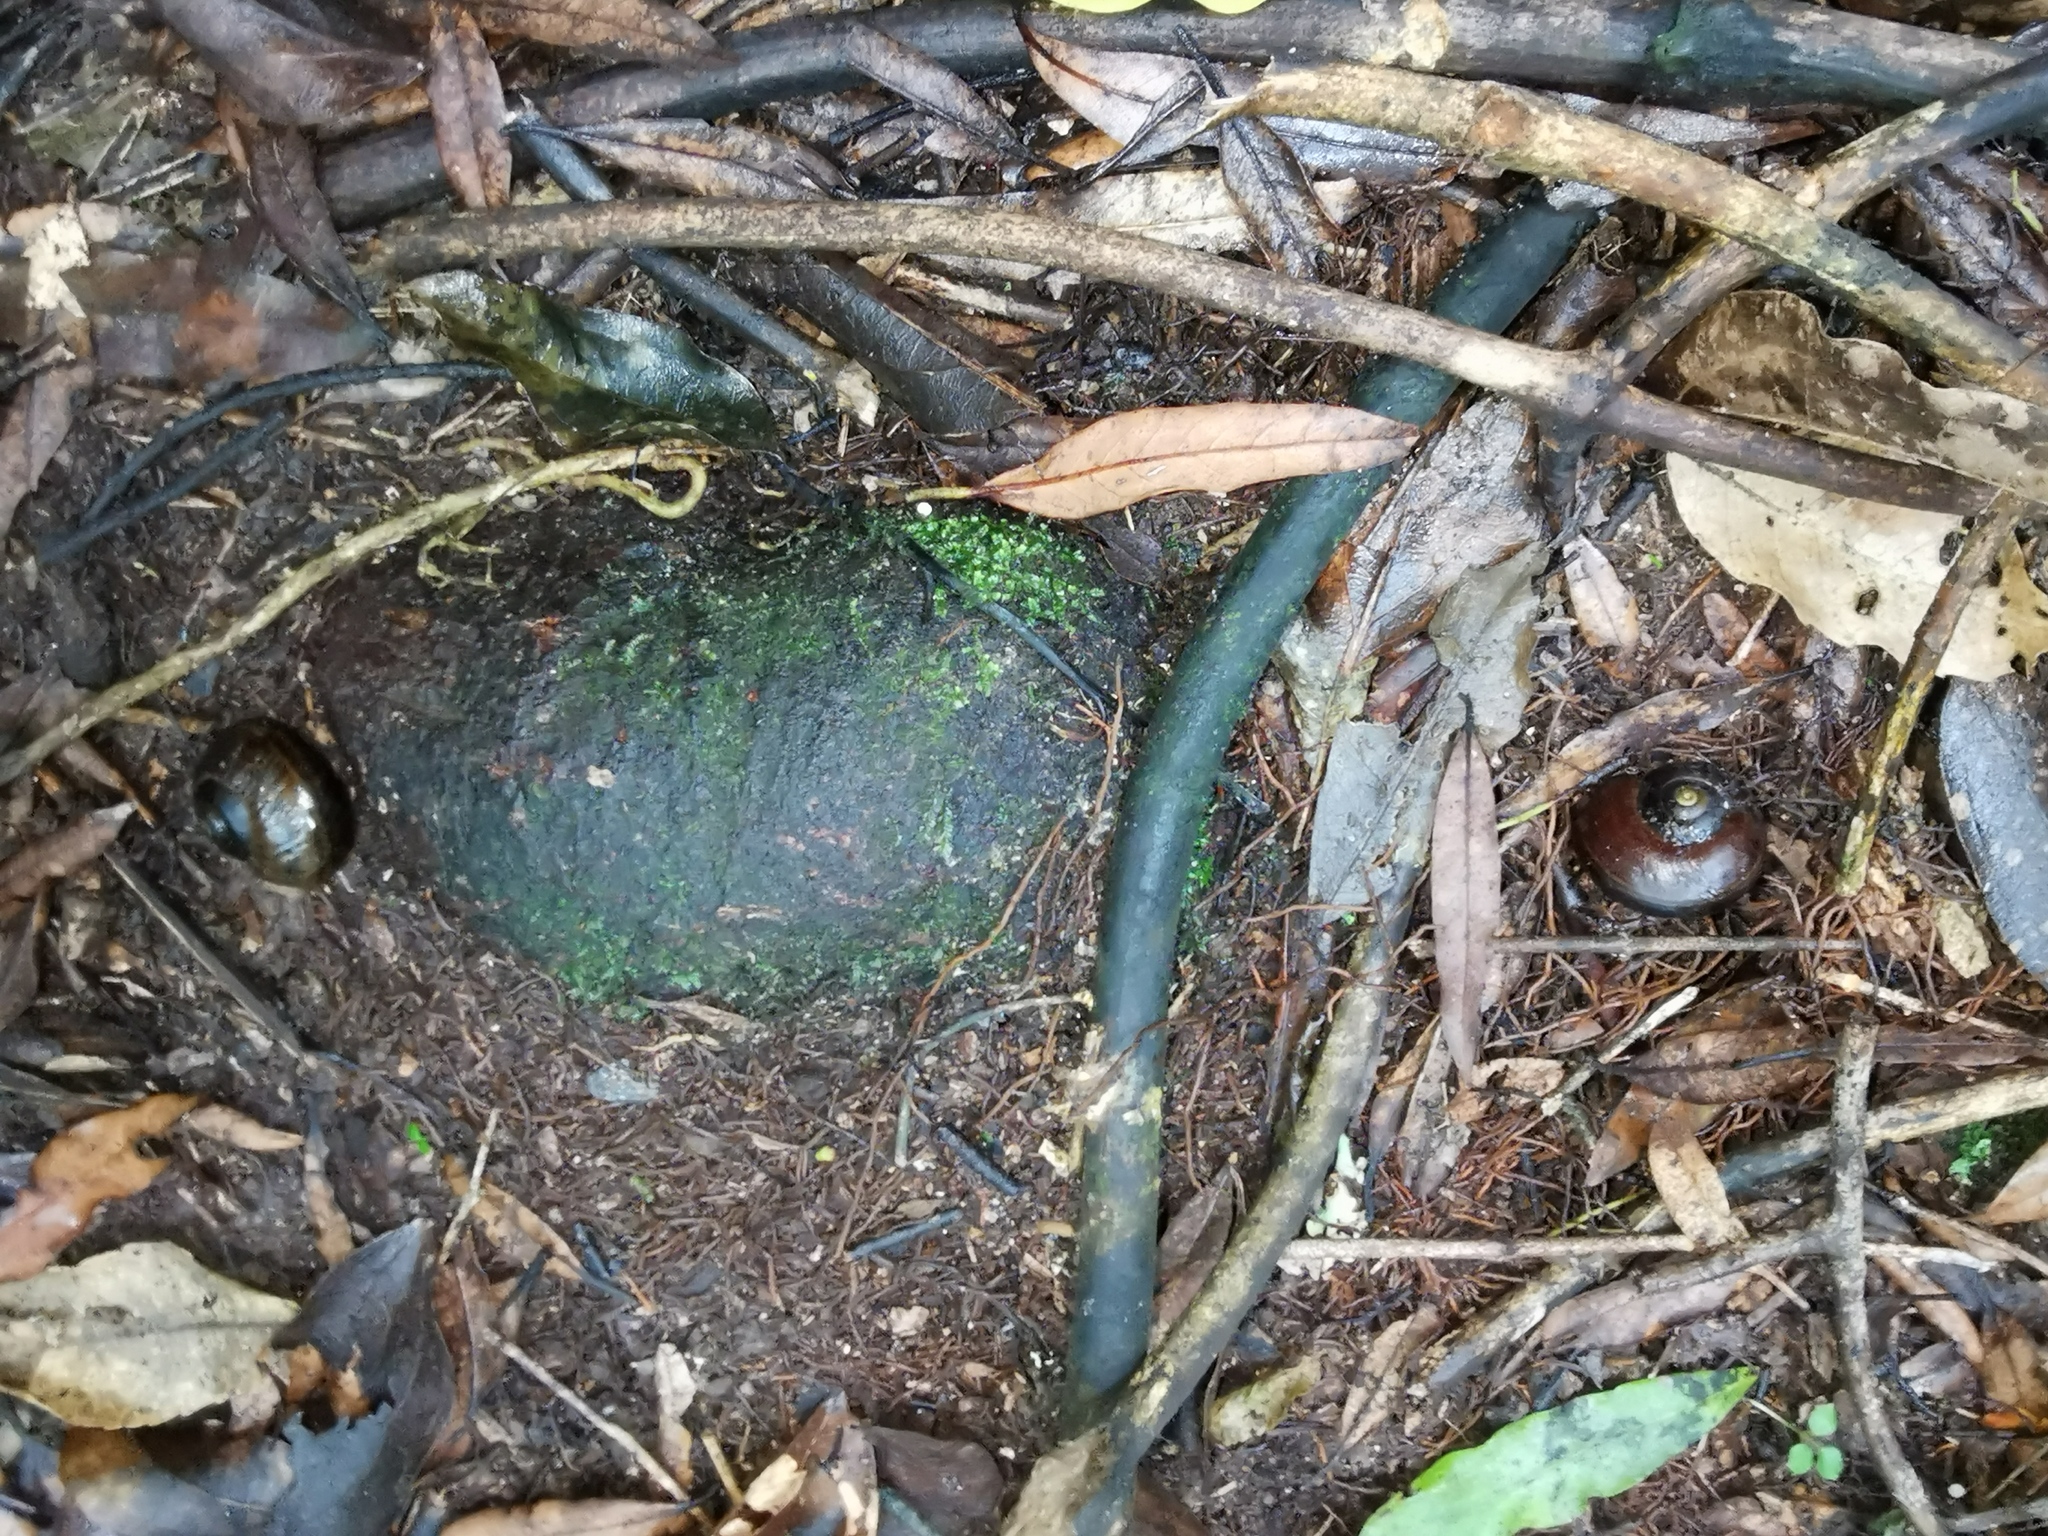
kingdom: Animalia
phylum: Mollusca
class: Gastropoda
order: Stylommatophora
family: Rhytididae
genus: Powelliphanta
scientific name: Powelliphanta traversi
